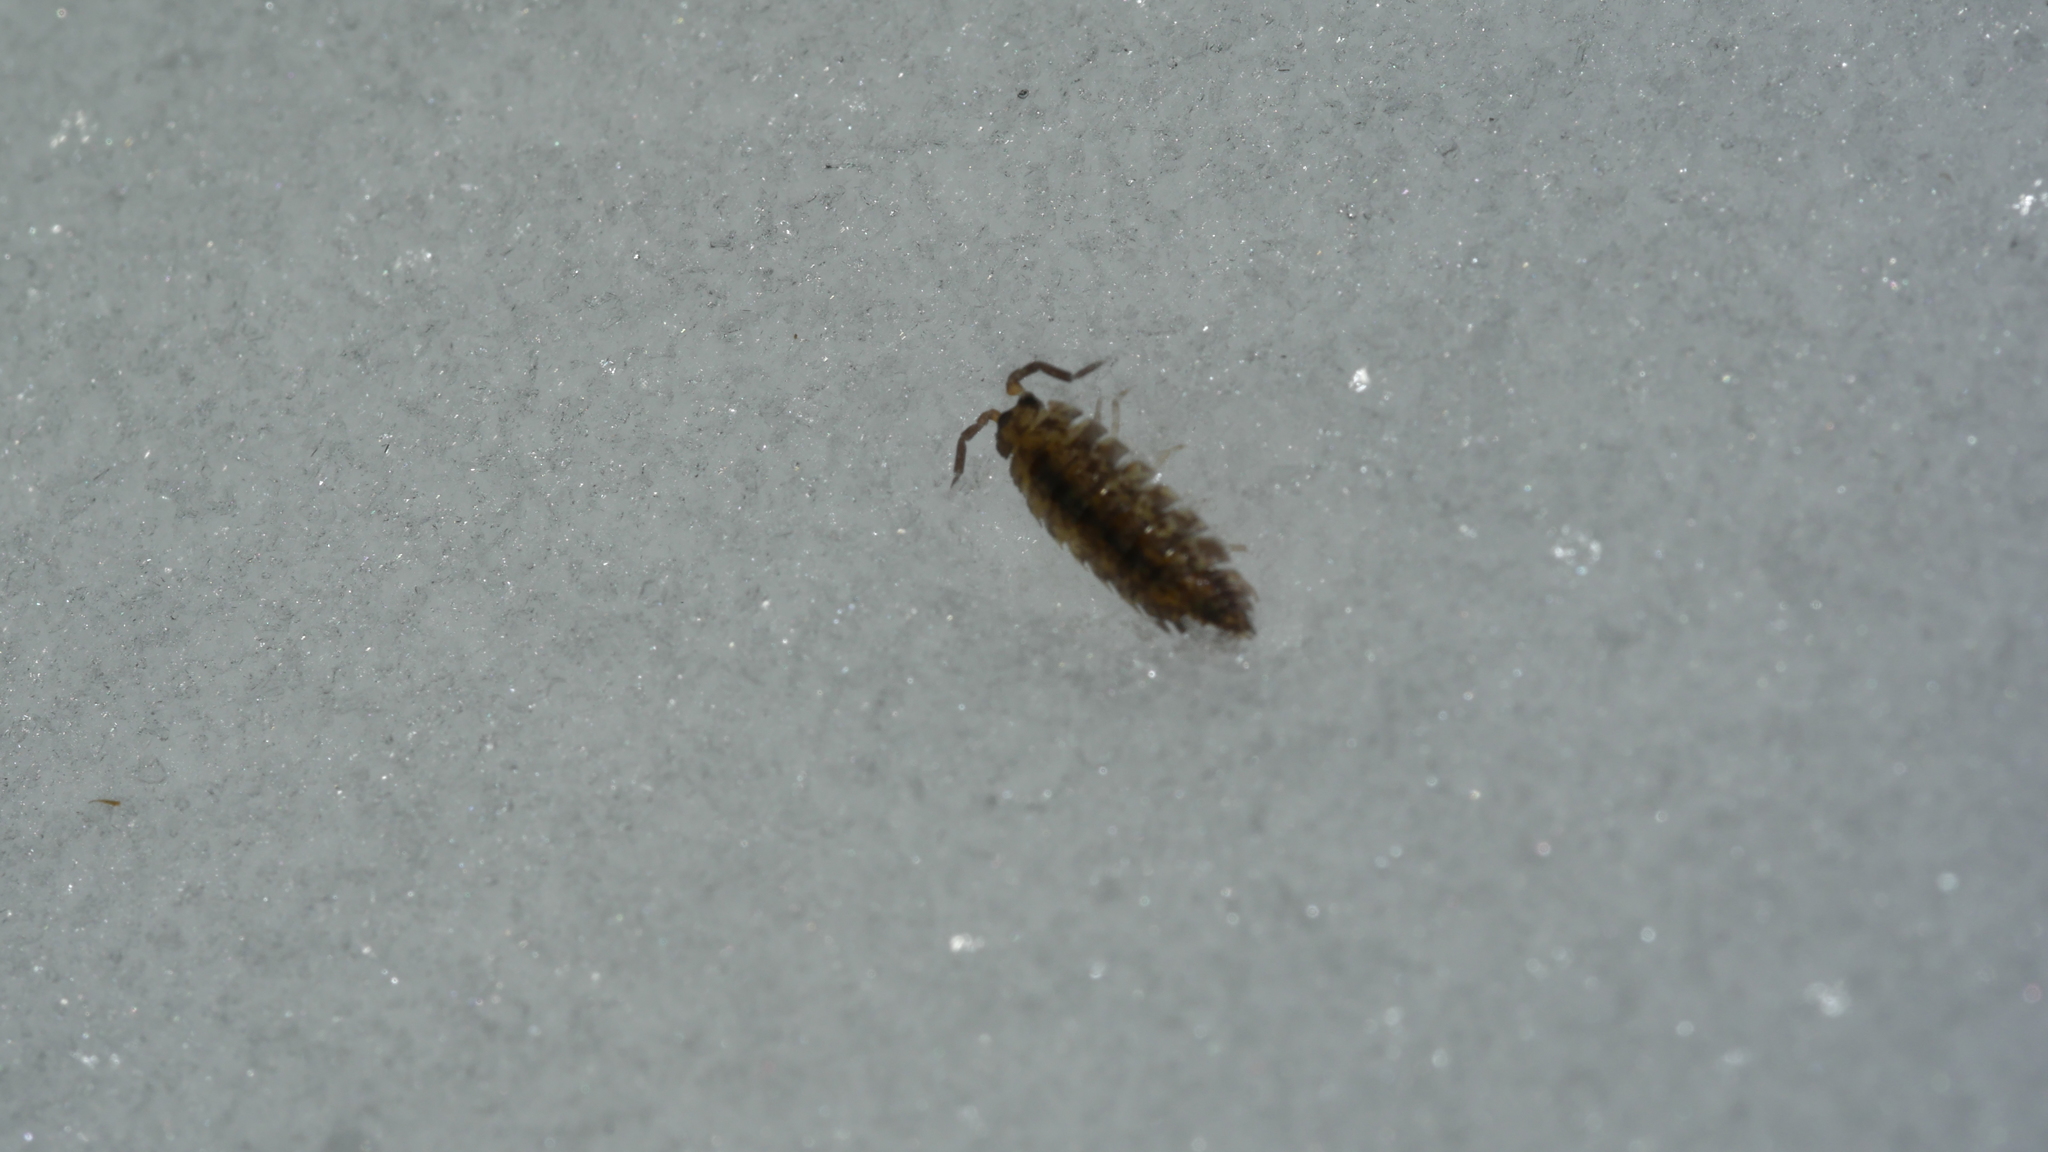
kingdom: Animalia
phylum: Arthropoda
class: Malacostraca
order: Isopoda
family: Porcellionidae
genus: Porcellio
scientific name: Porcellio scaber
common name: Common rough woodlouse
